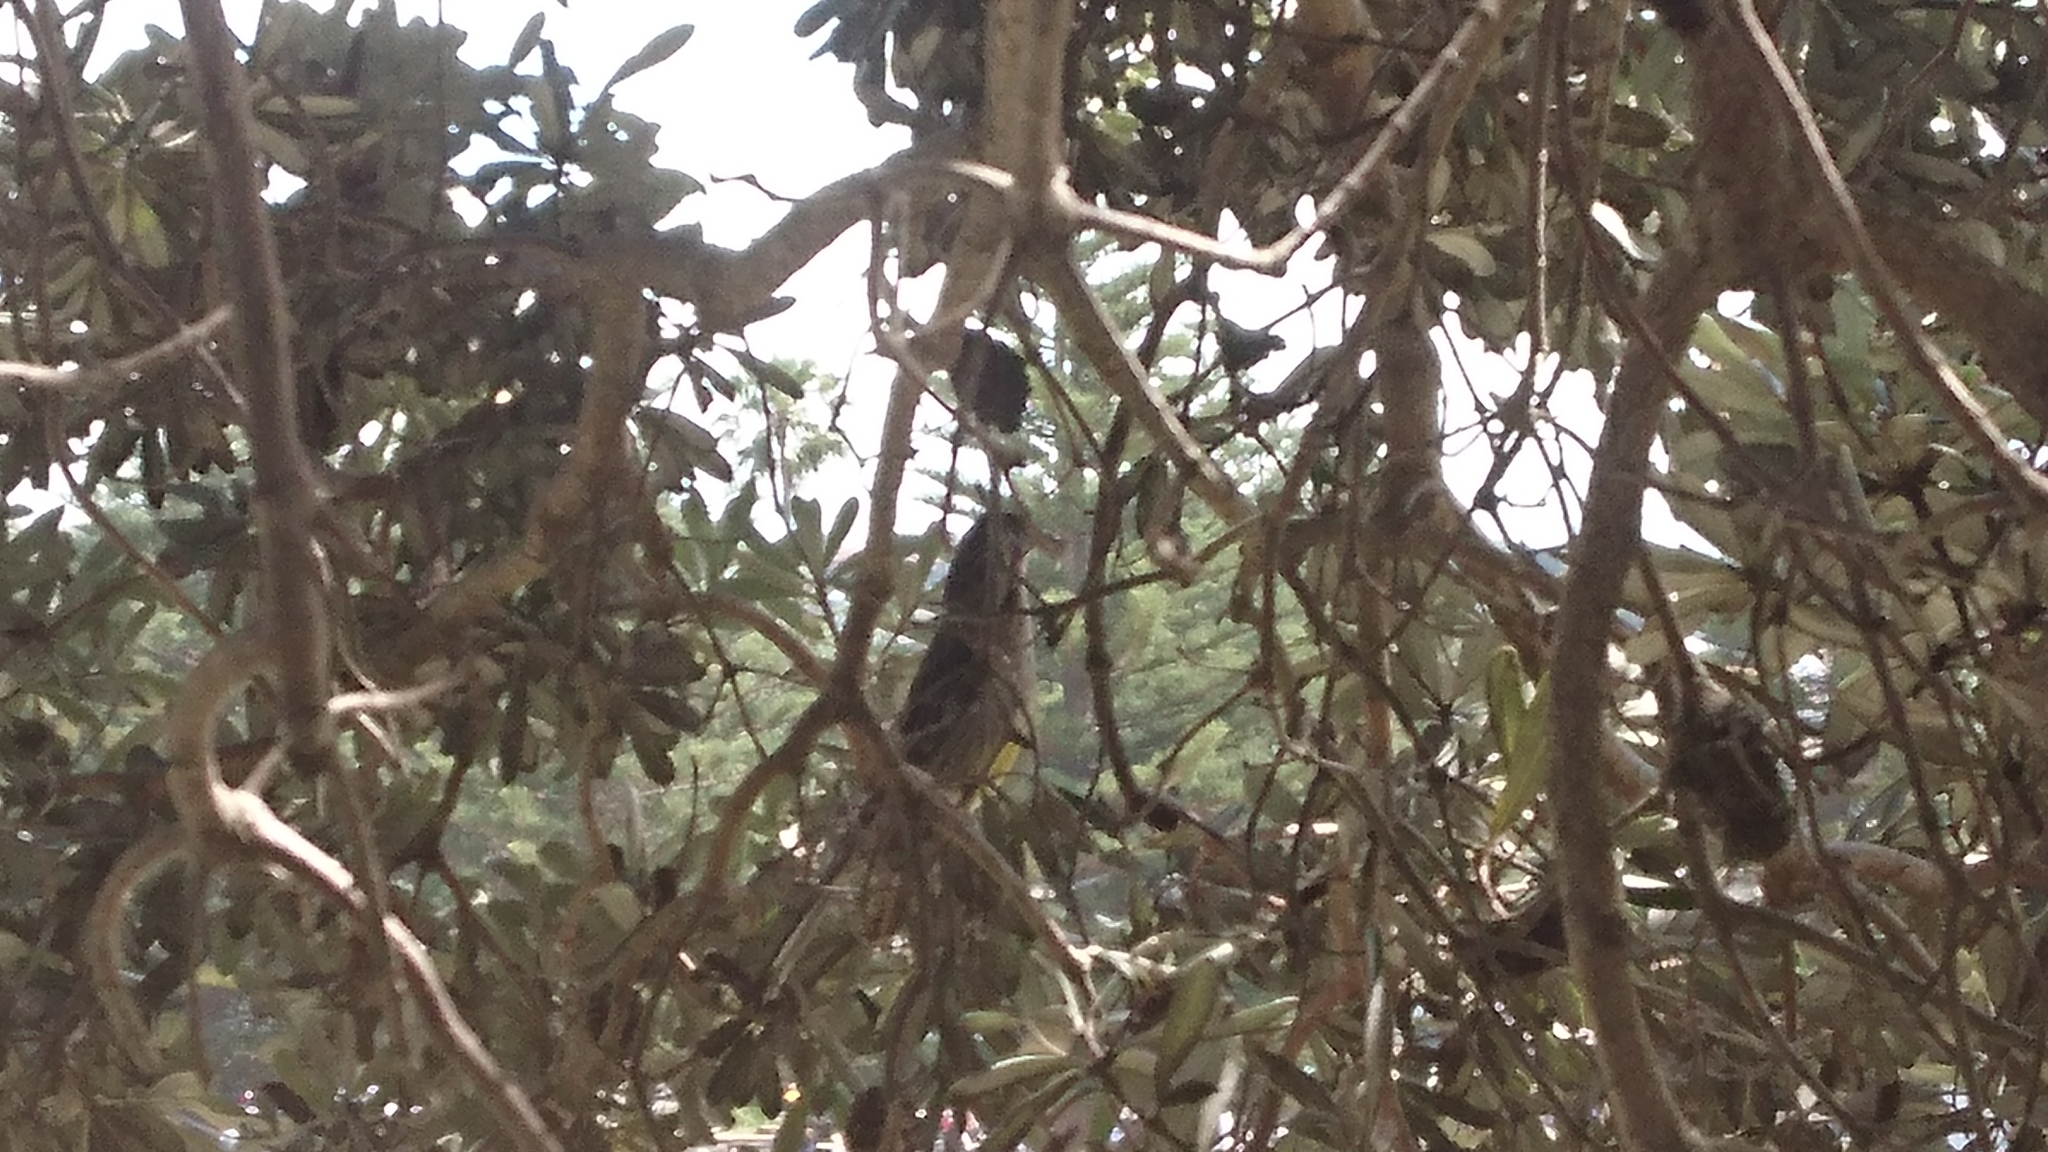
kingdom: Animalia
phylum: Chordata
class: Aves
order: Passeriformes
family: Meliphagidae
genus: Anthochaera
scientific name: Anthochaera carunculata
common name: Red wattlebird
